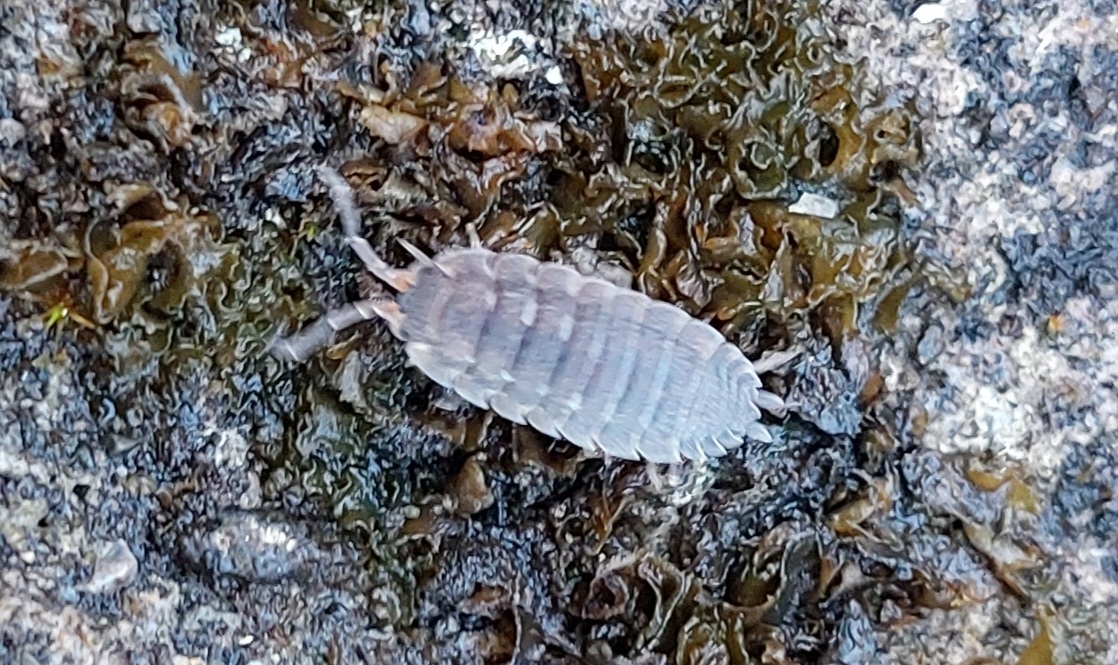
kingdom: Animalia
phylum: Arthropoda
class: Malacostraca
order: Isopoda
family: Porcellionidae
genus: Porcellio
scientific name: Porcellio scaber
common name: Common rough woodlouse
